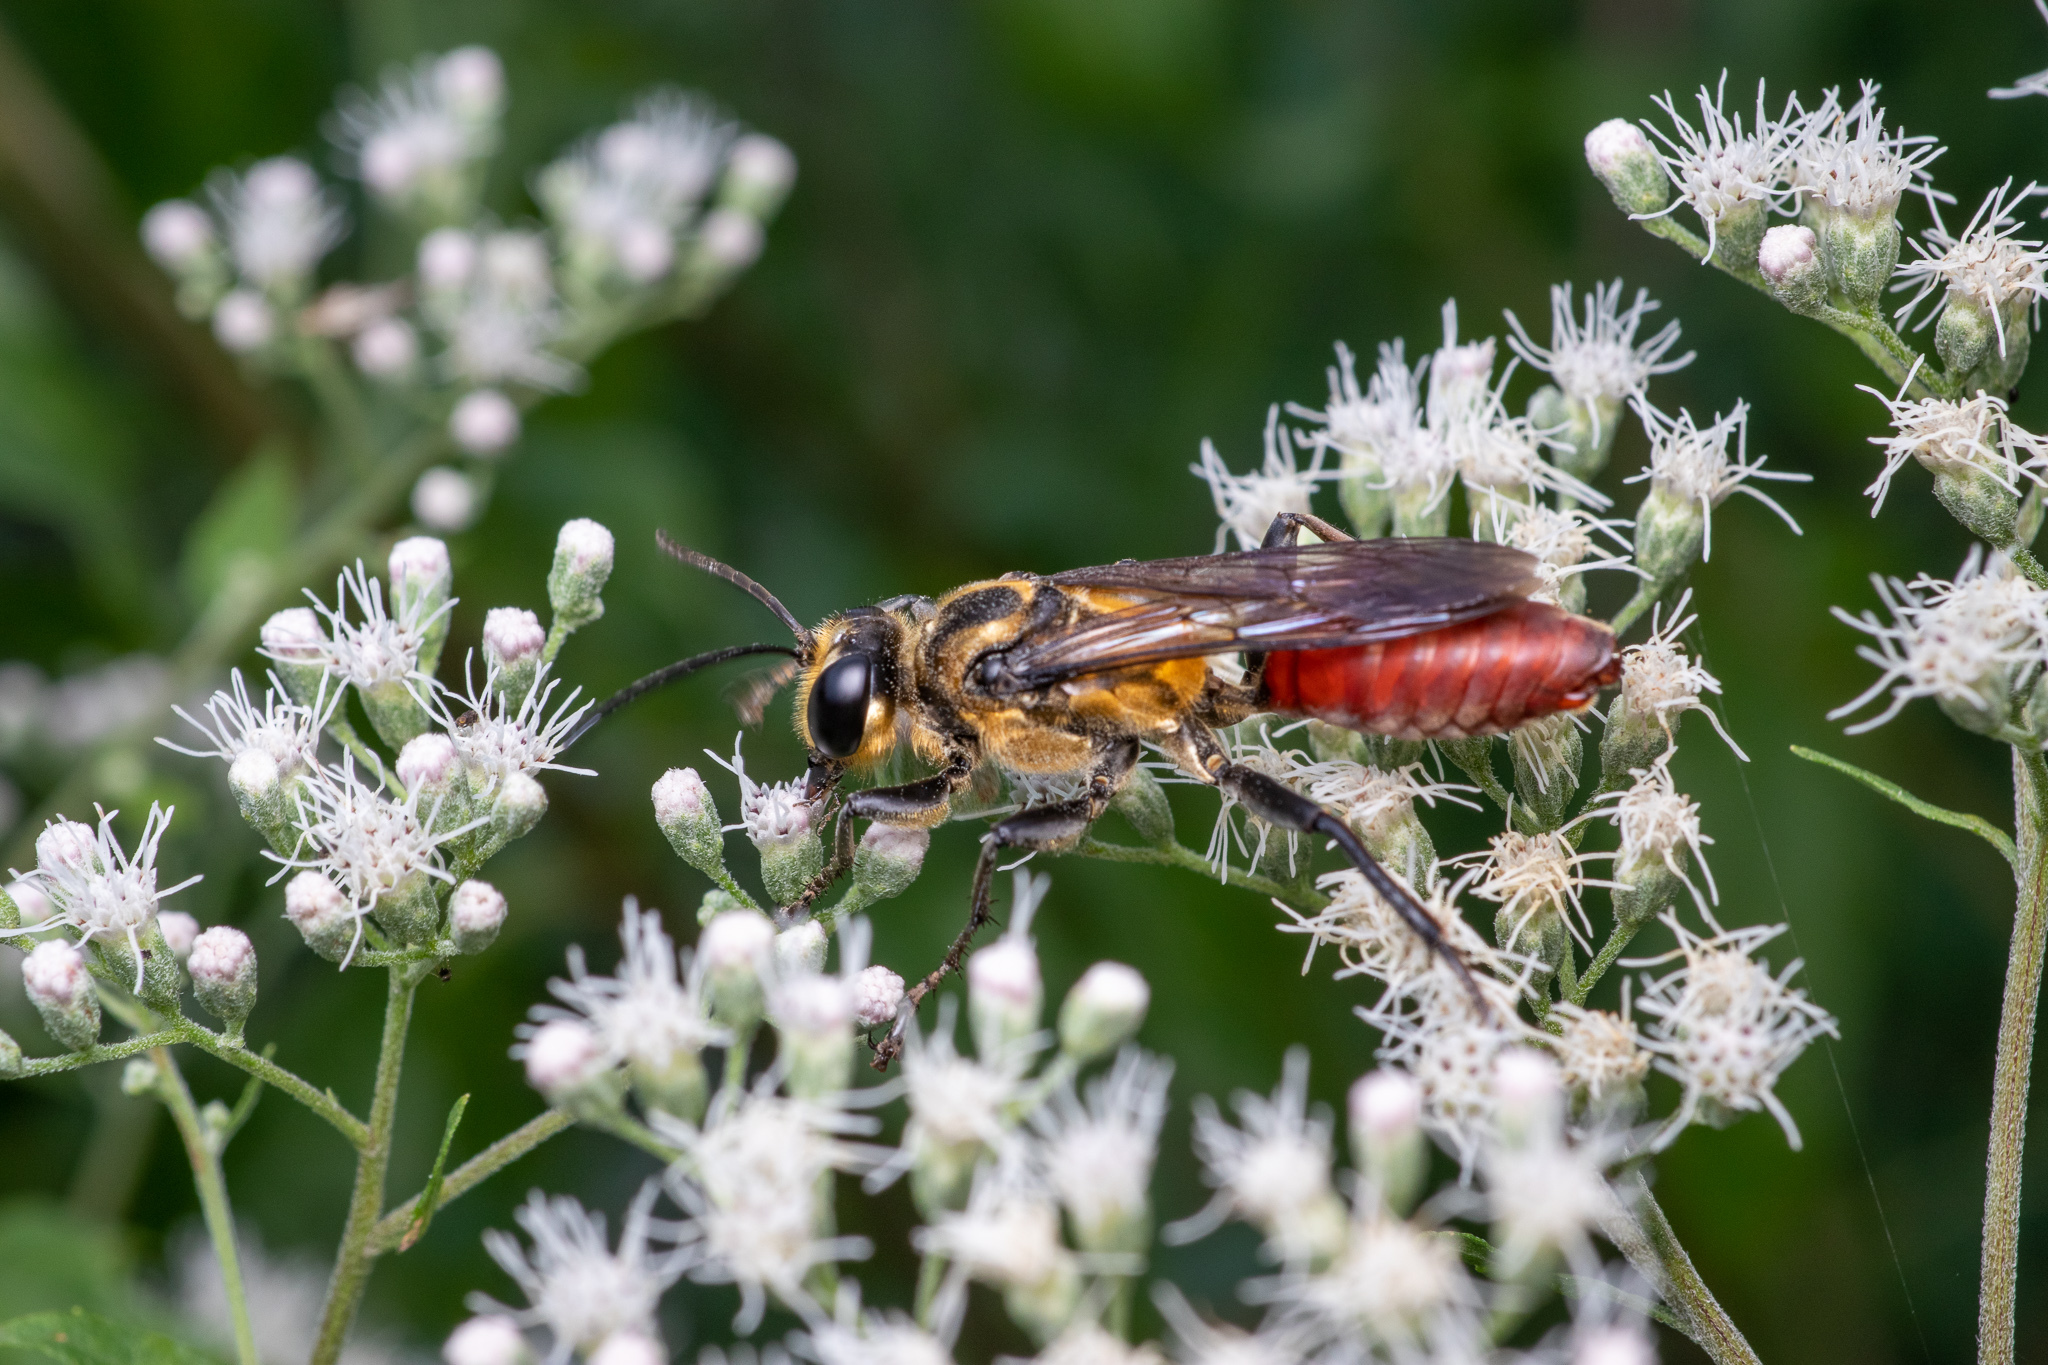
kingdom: Animalia
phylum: Arthropoda
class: Insecta
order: Hymenoptera
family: Sphecidae
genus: Sphex
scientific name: Sphex habenus
